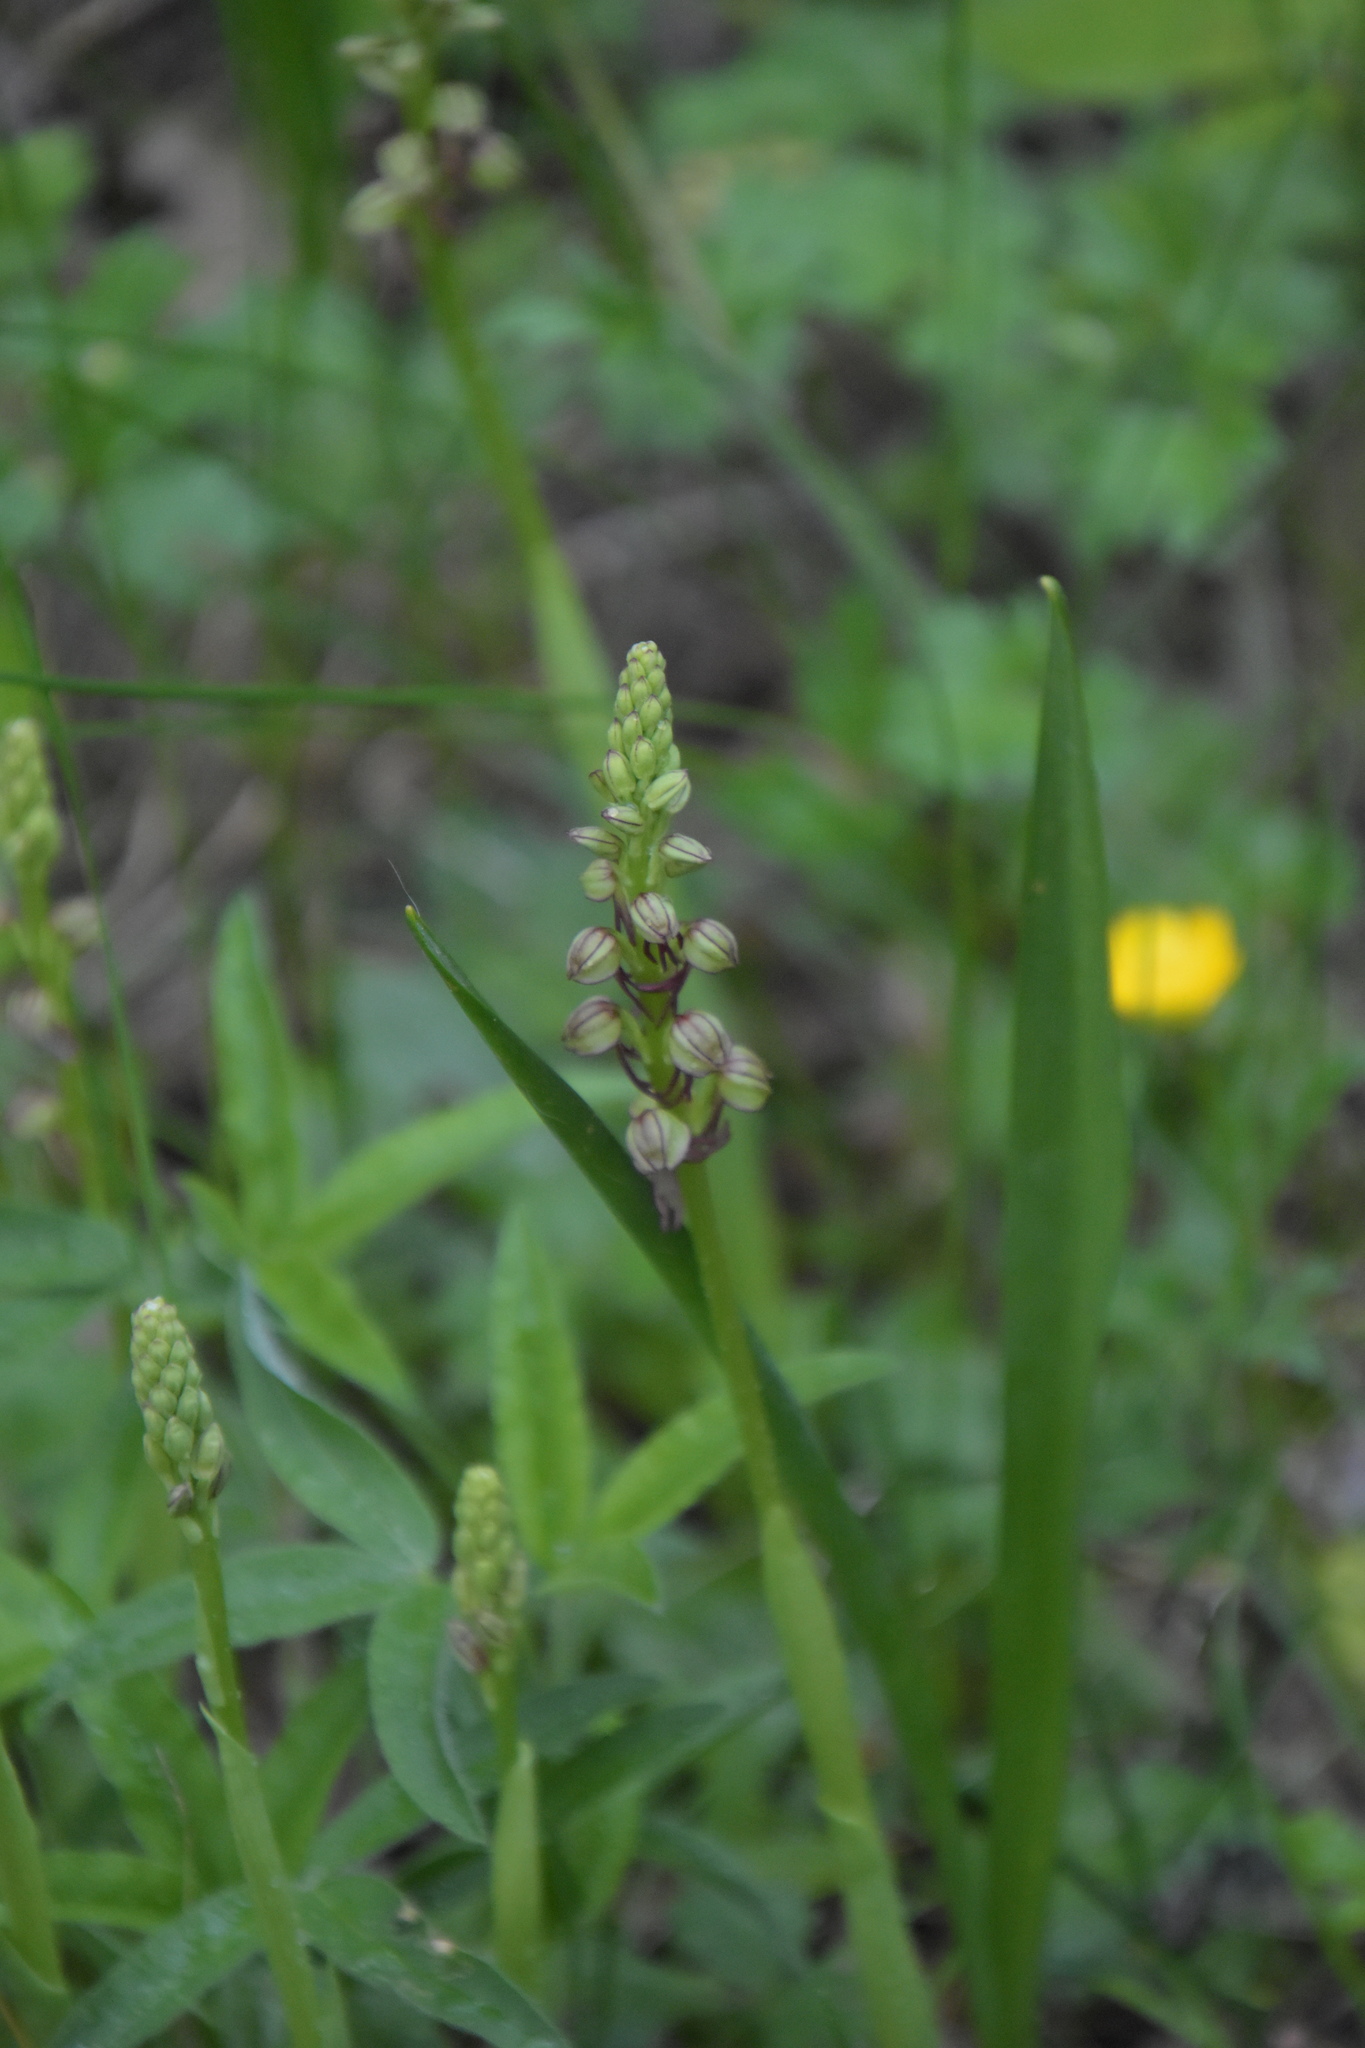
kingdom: Plantae
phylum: Tracheophyta
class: Liliopsida
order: Asparagales
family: Orchidaceae
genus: Orchis
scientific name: Orchis anthropophora
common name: Man orchid
